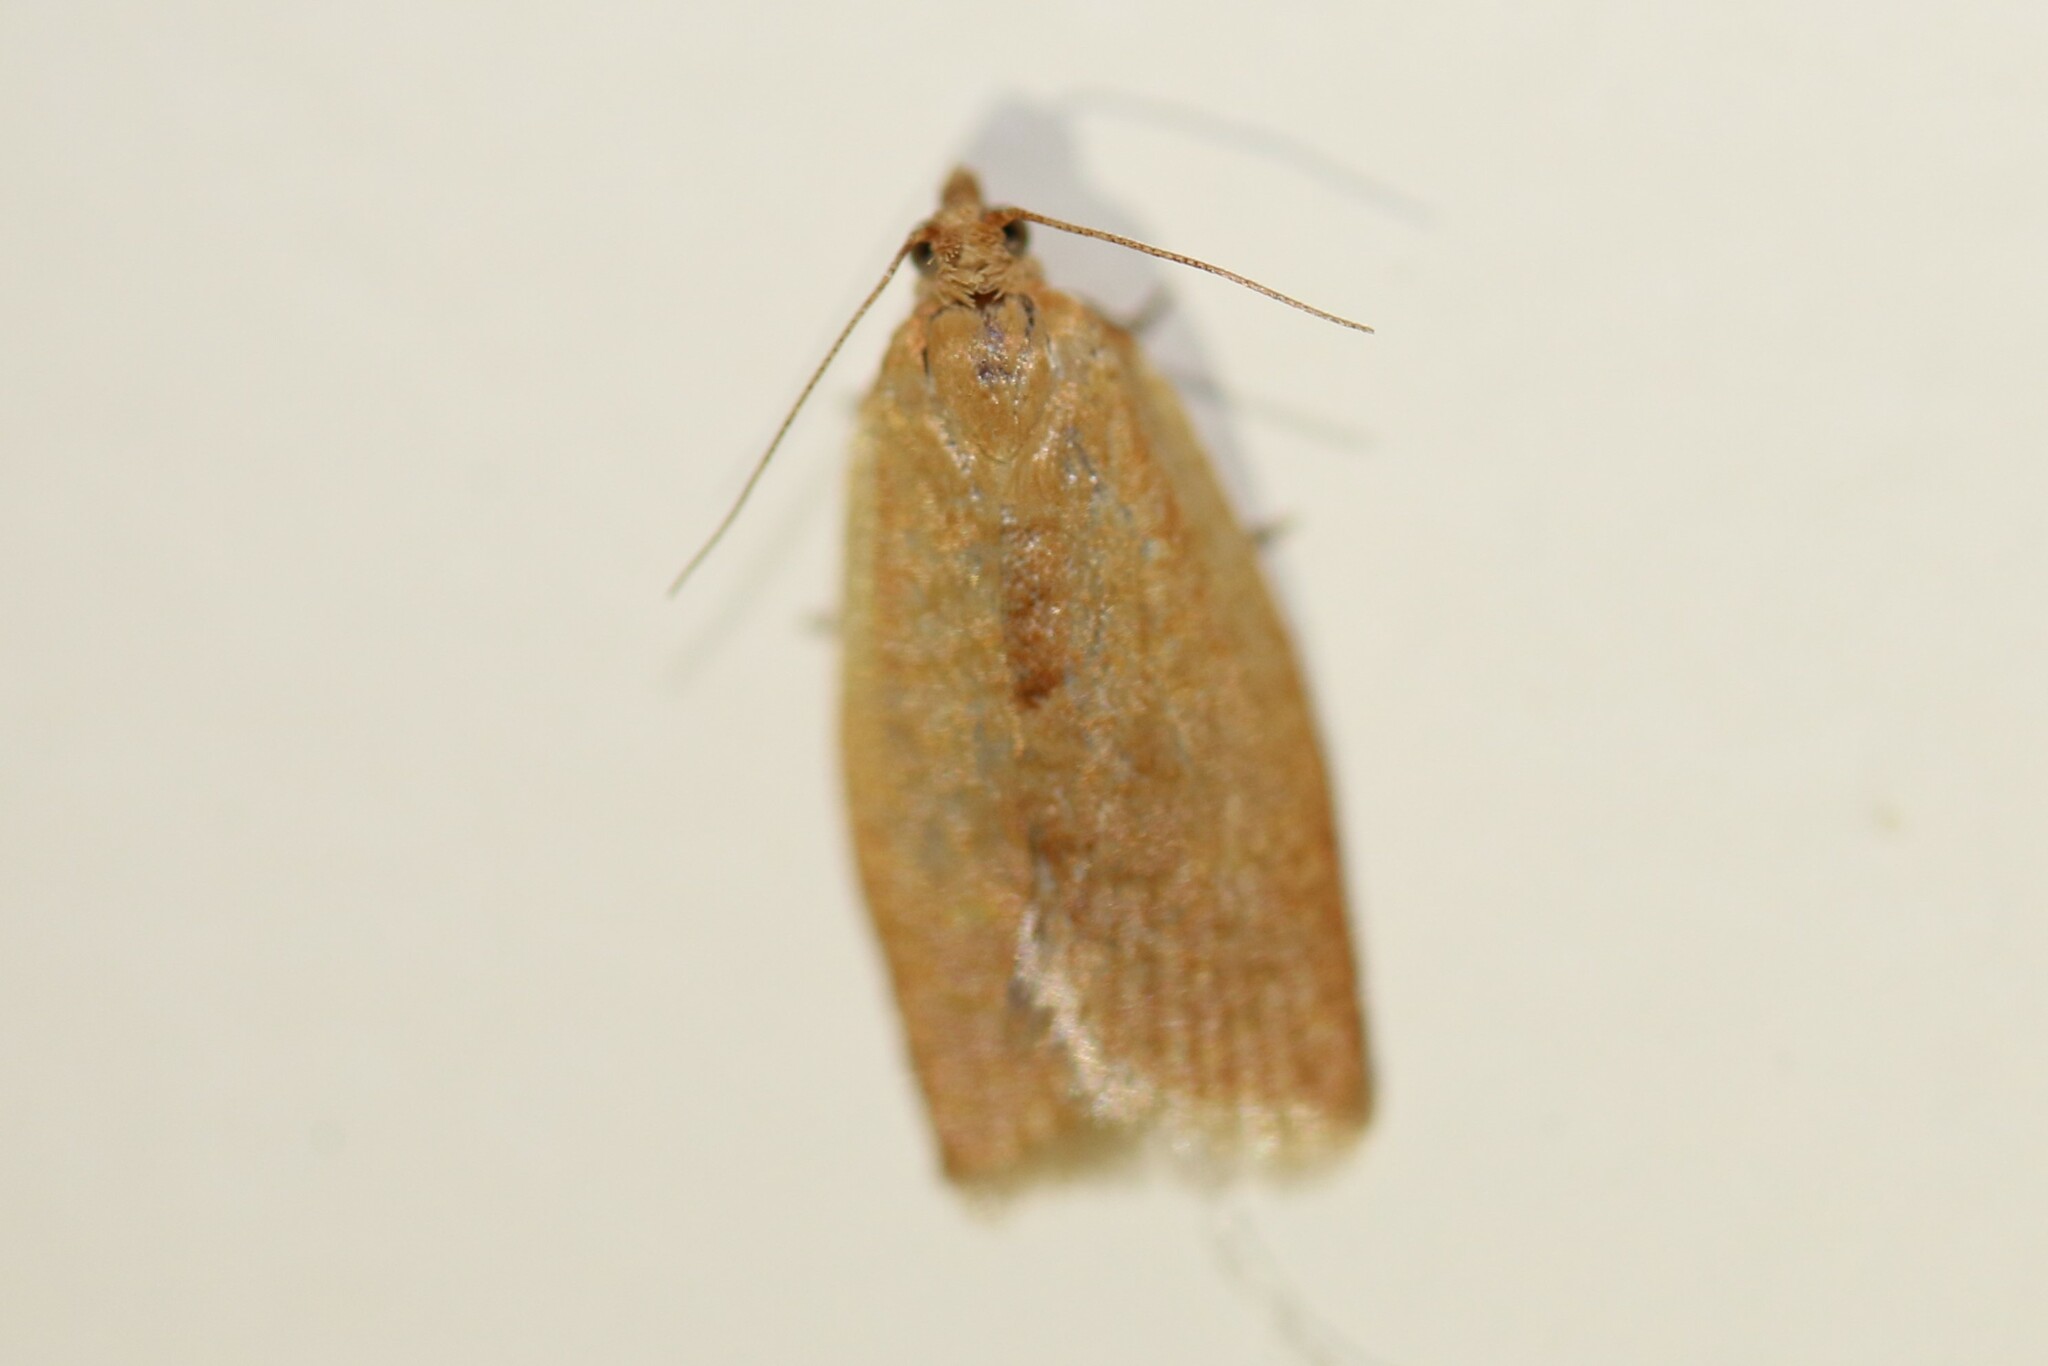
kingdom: Animalia
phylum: Arthropoda
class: Insecta
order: Lepidoptera
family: Tortricidae
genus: Clepsis
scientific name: Clepsis consimilana
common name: Privet tortrix
